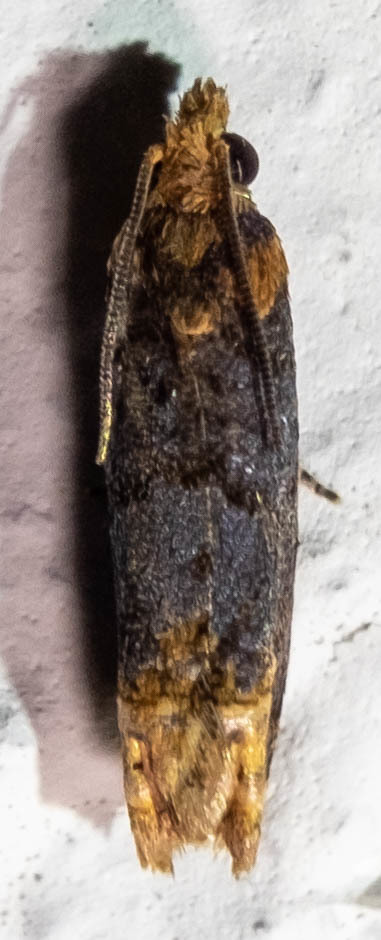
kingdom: Animalia
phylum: Arthropoda
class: Insecta
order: Lepidoptera
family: Tortricidae
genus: Eucosma
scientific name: Eucosma ochroterminana
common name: Buff-tipped eucosma moth
